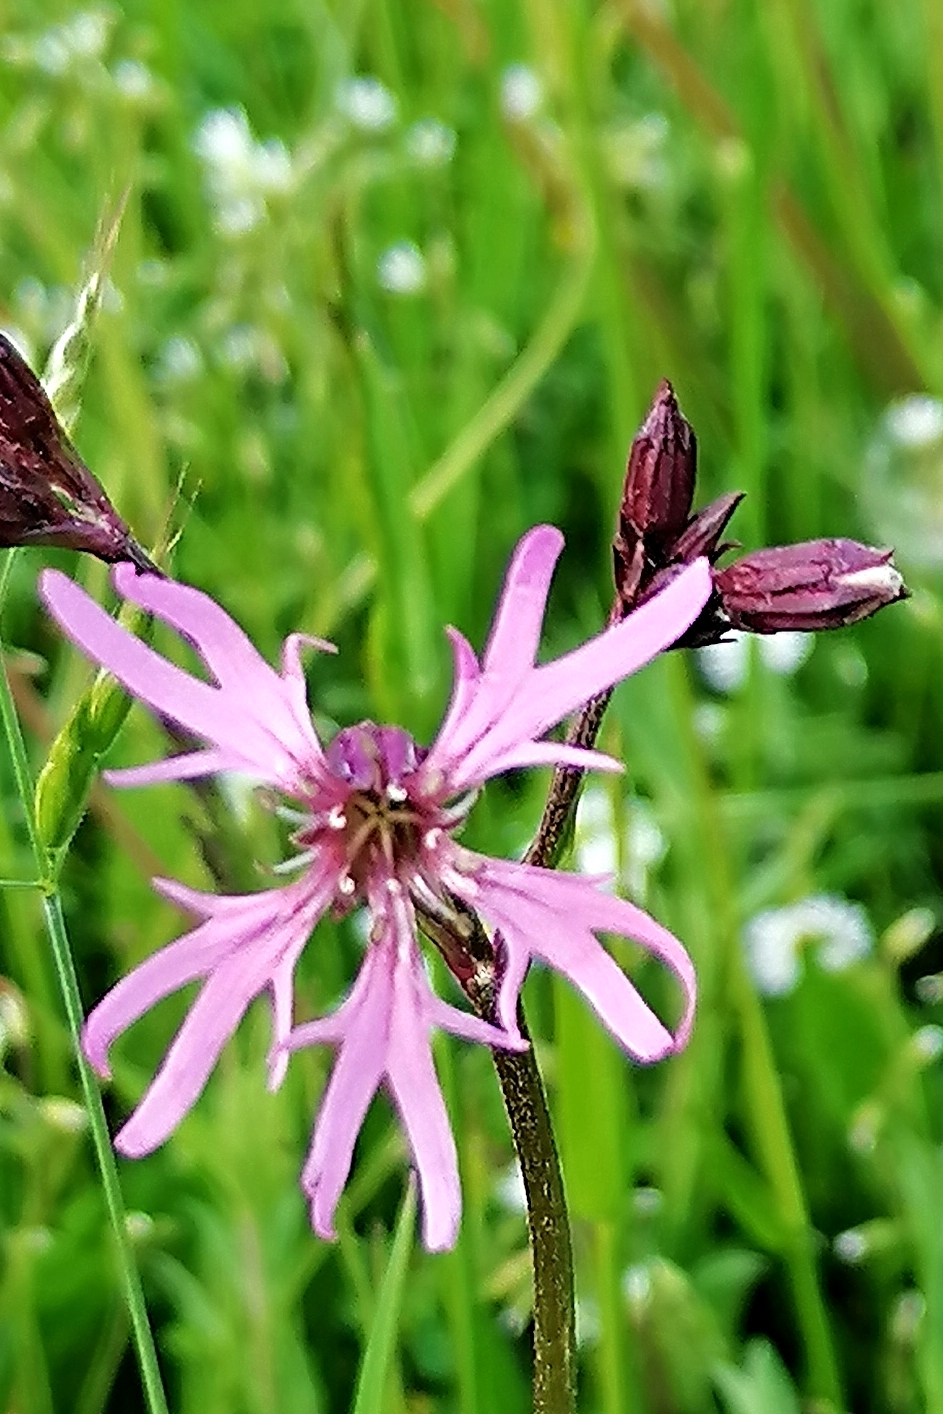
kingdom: Plantae
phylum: Tracheophyta
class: Magnoliopsida
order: Caryophyllales
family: Caryophyllaceae
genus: Silene
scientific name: Silene flos-cuculi
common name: Ragged-robin
